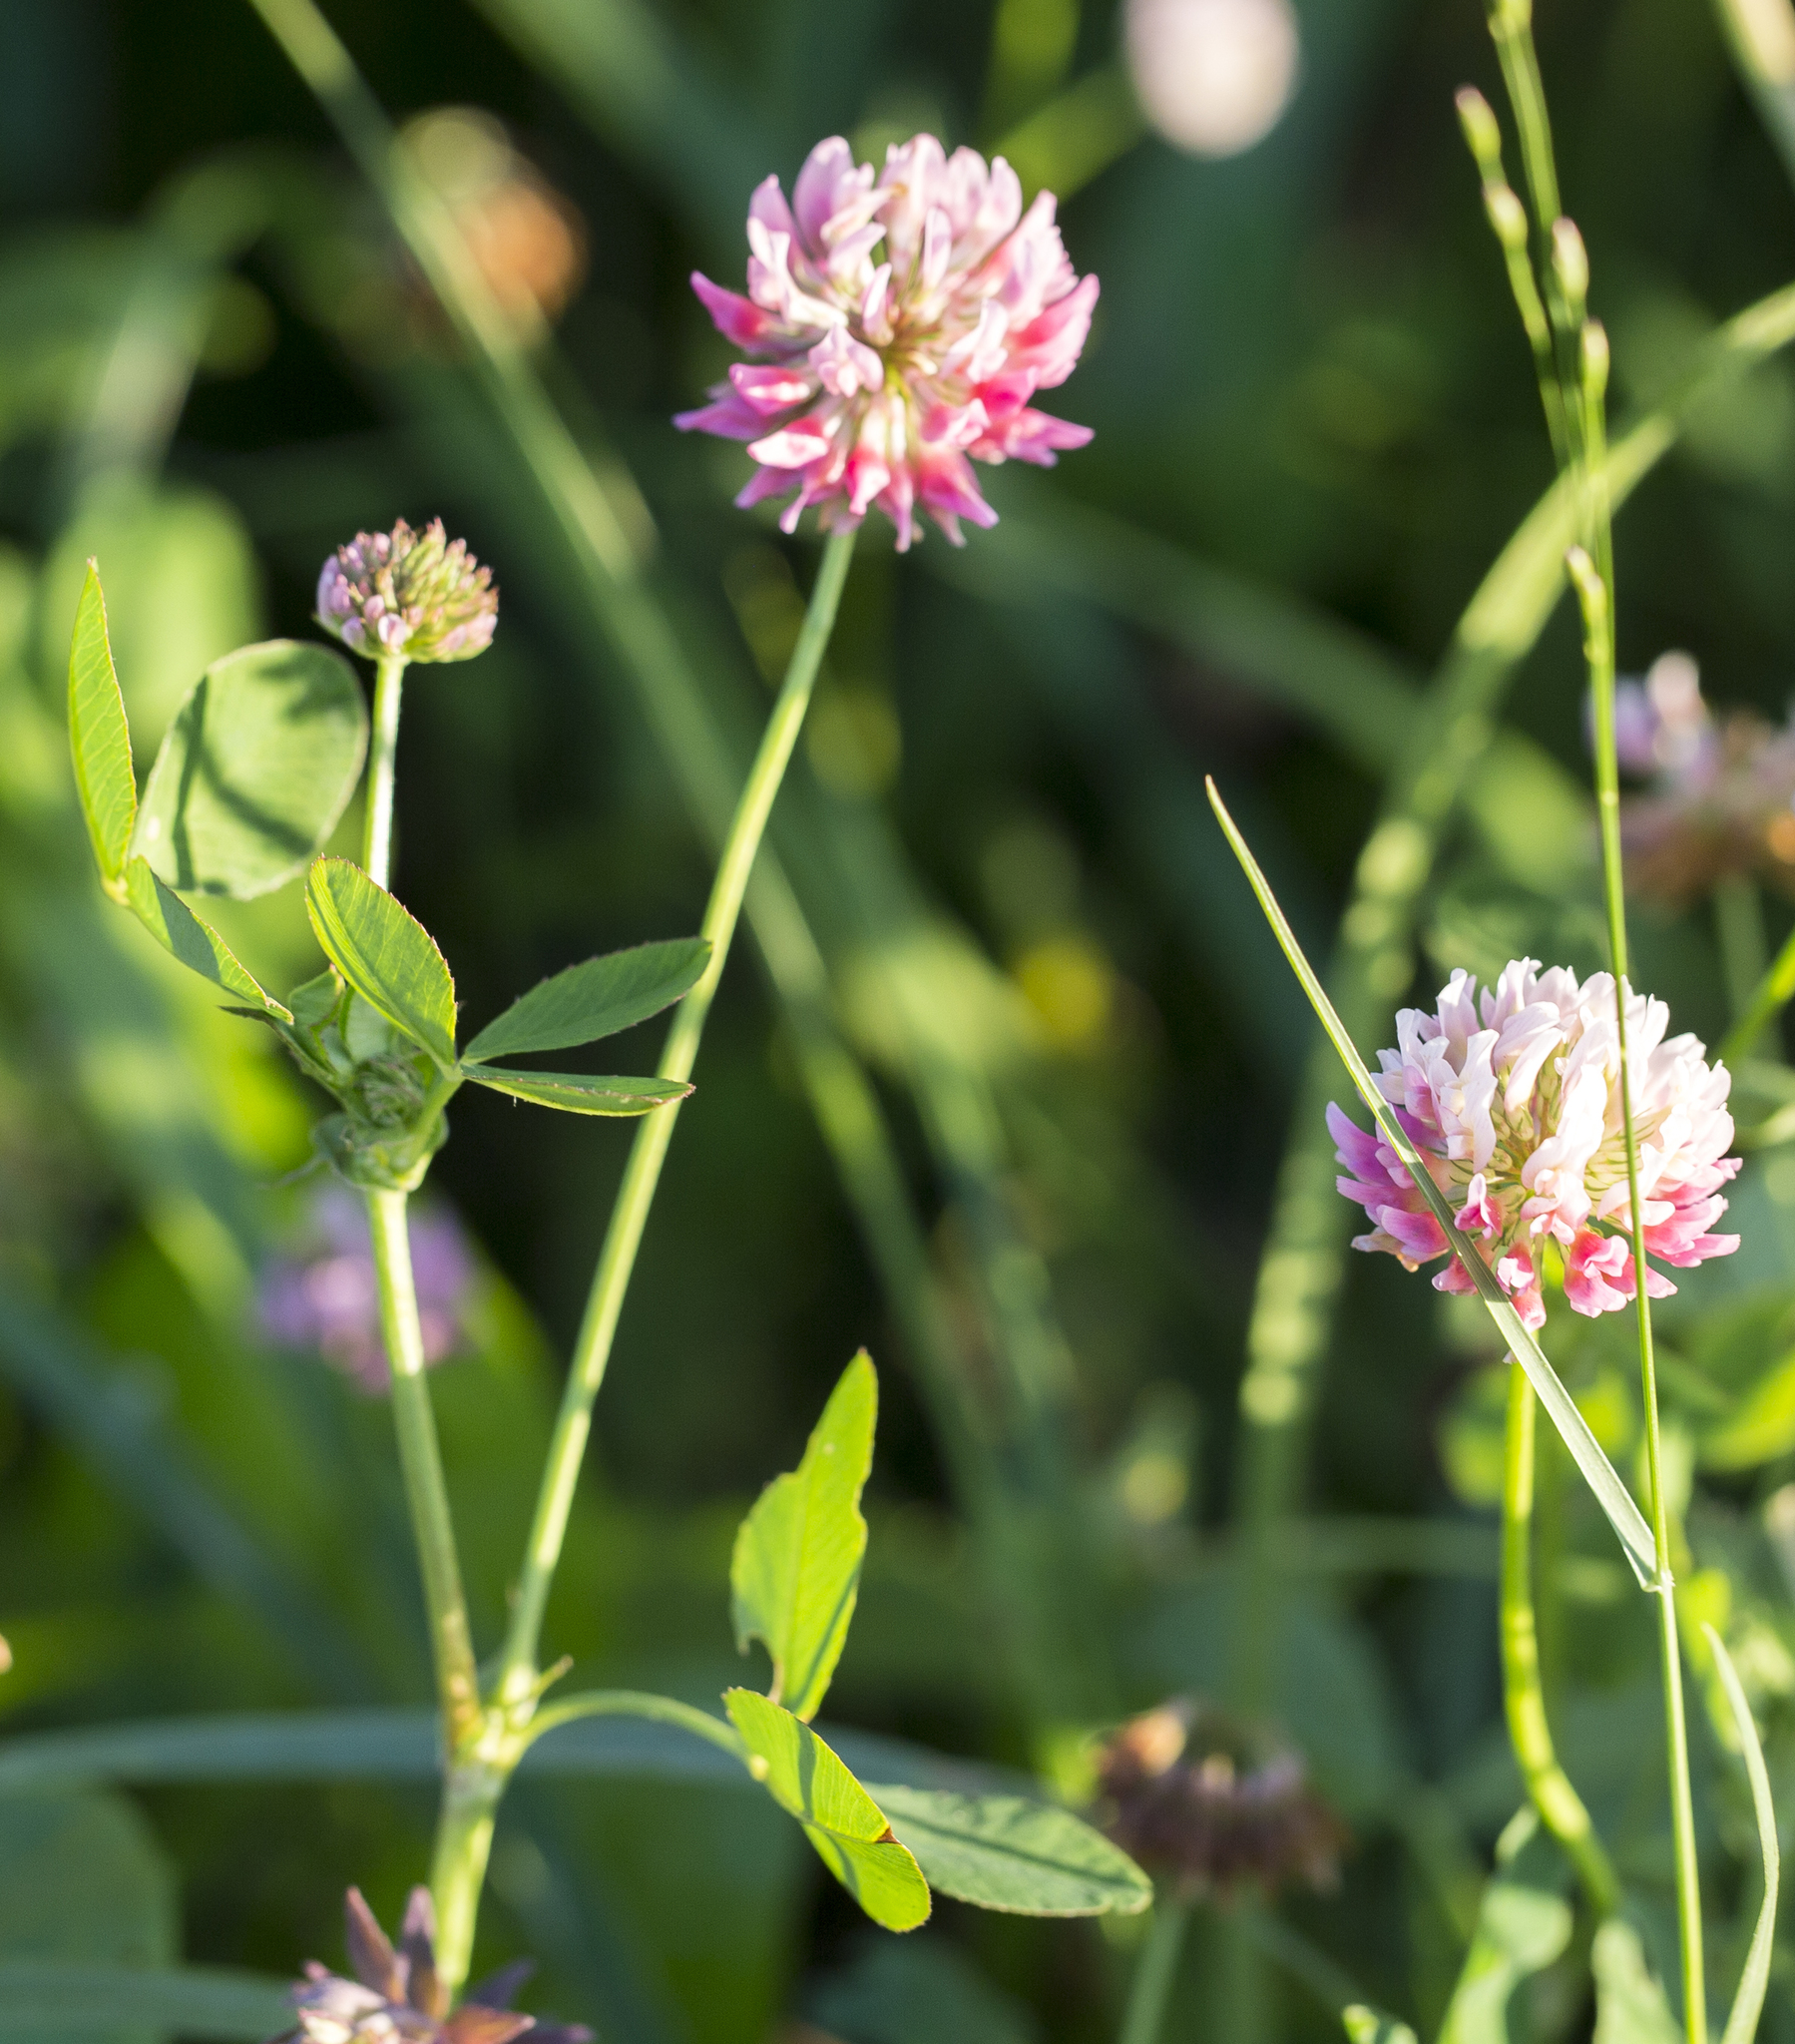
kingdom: Plantae
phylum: Tracheophyta
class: Magnoliopsida
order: Fabales
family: Fabaceae
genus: Trifolium
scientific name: Trifolium hybridum
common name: Alsike clover
